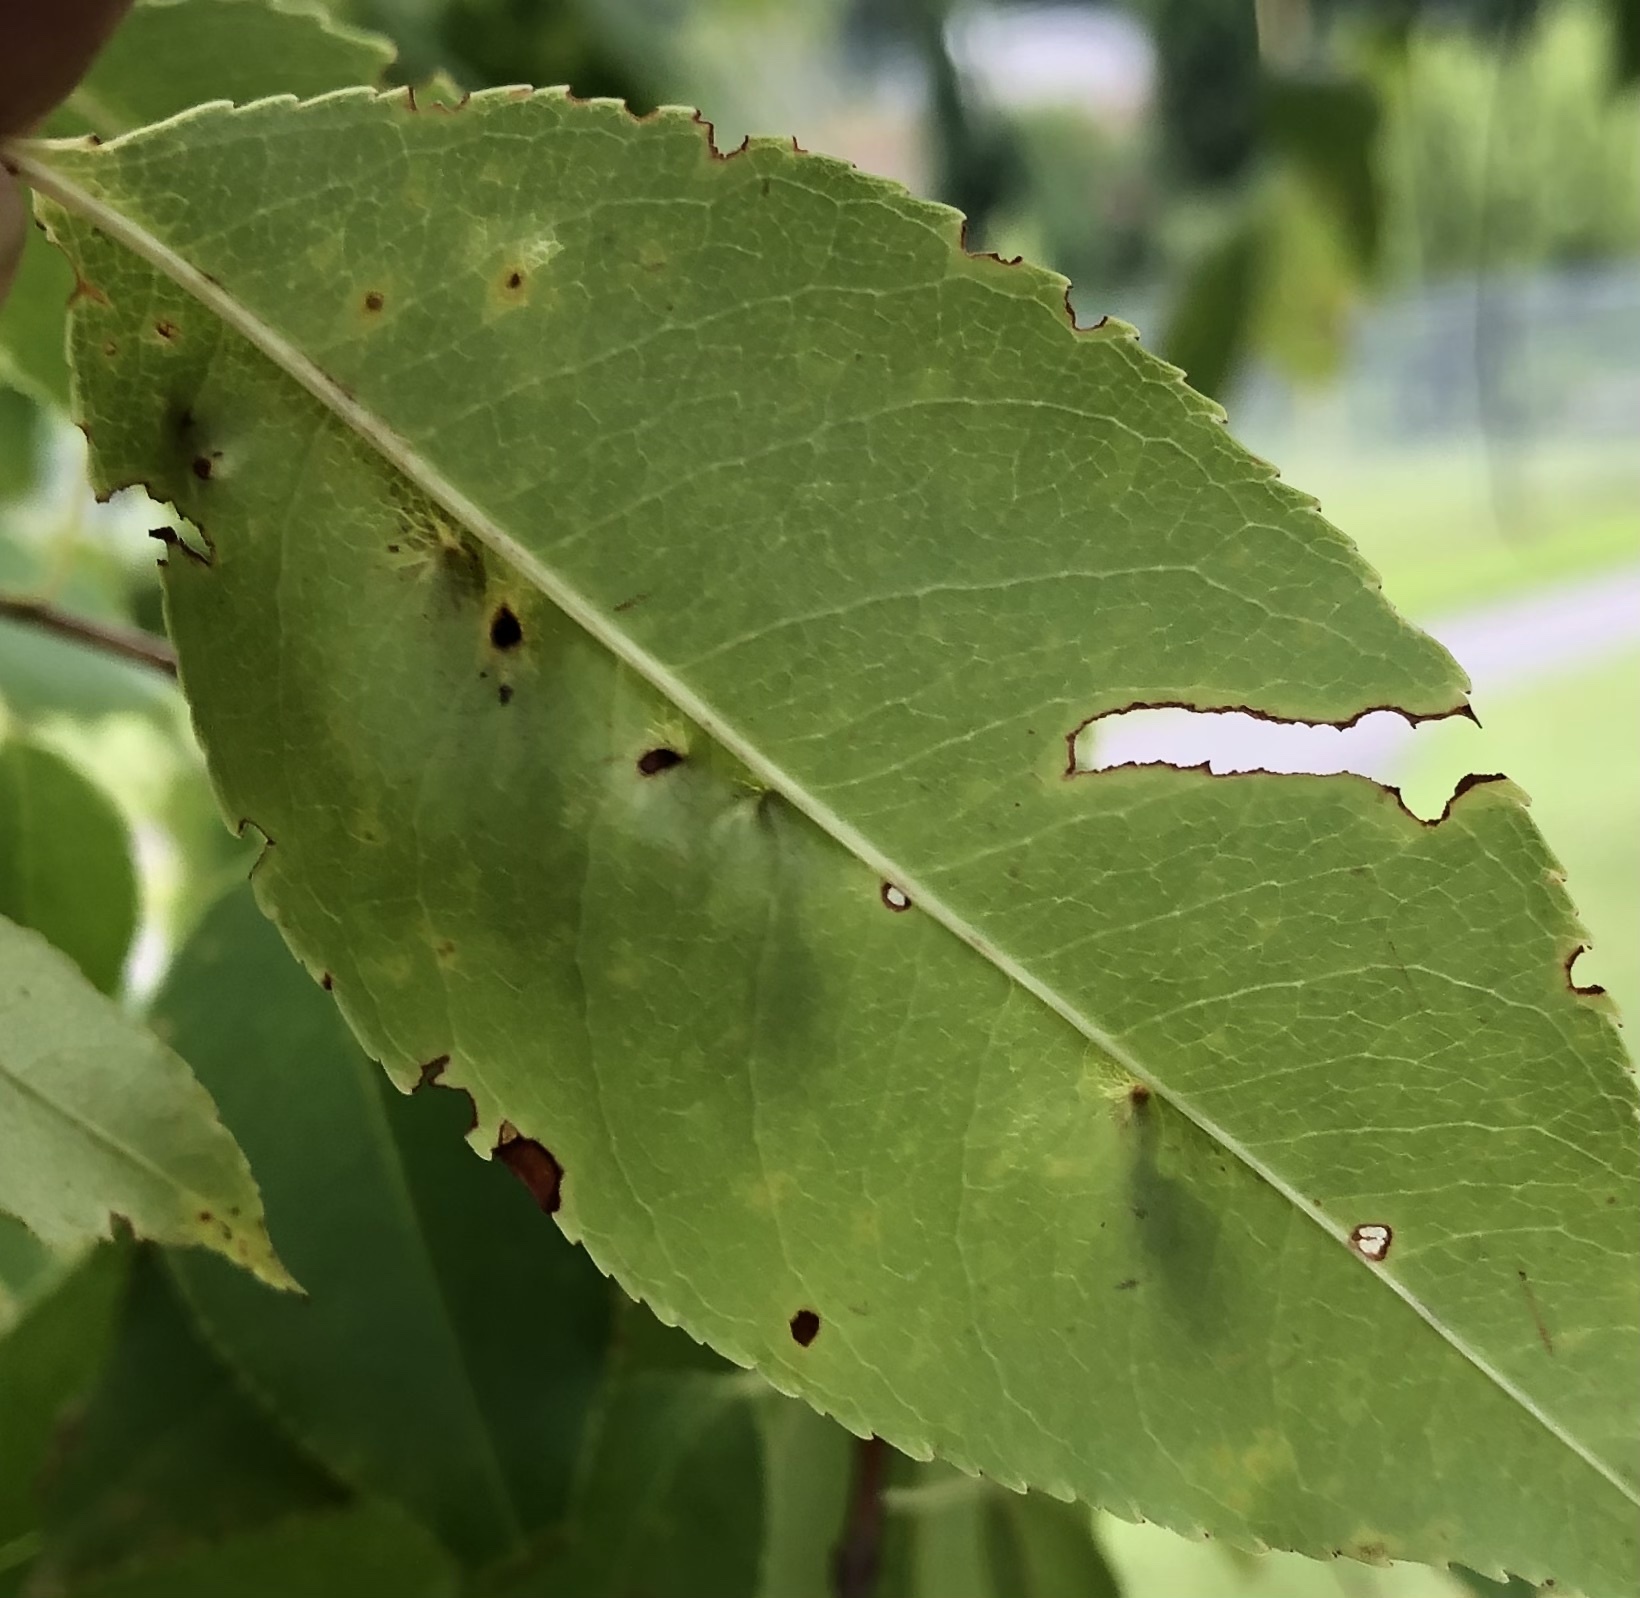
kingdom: Animalia
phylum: Arthropoda
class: Arachnida
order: Trombidiformes
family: Eriophyidae
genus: Eriophyes
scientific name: Eriophyes
